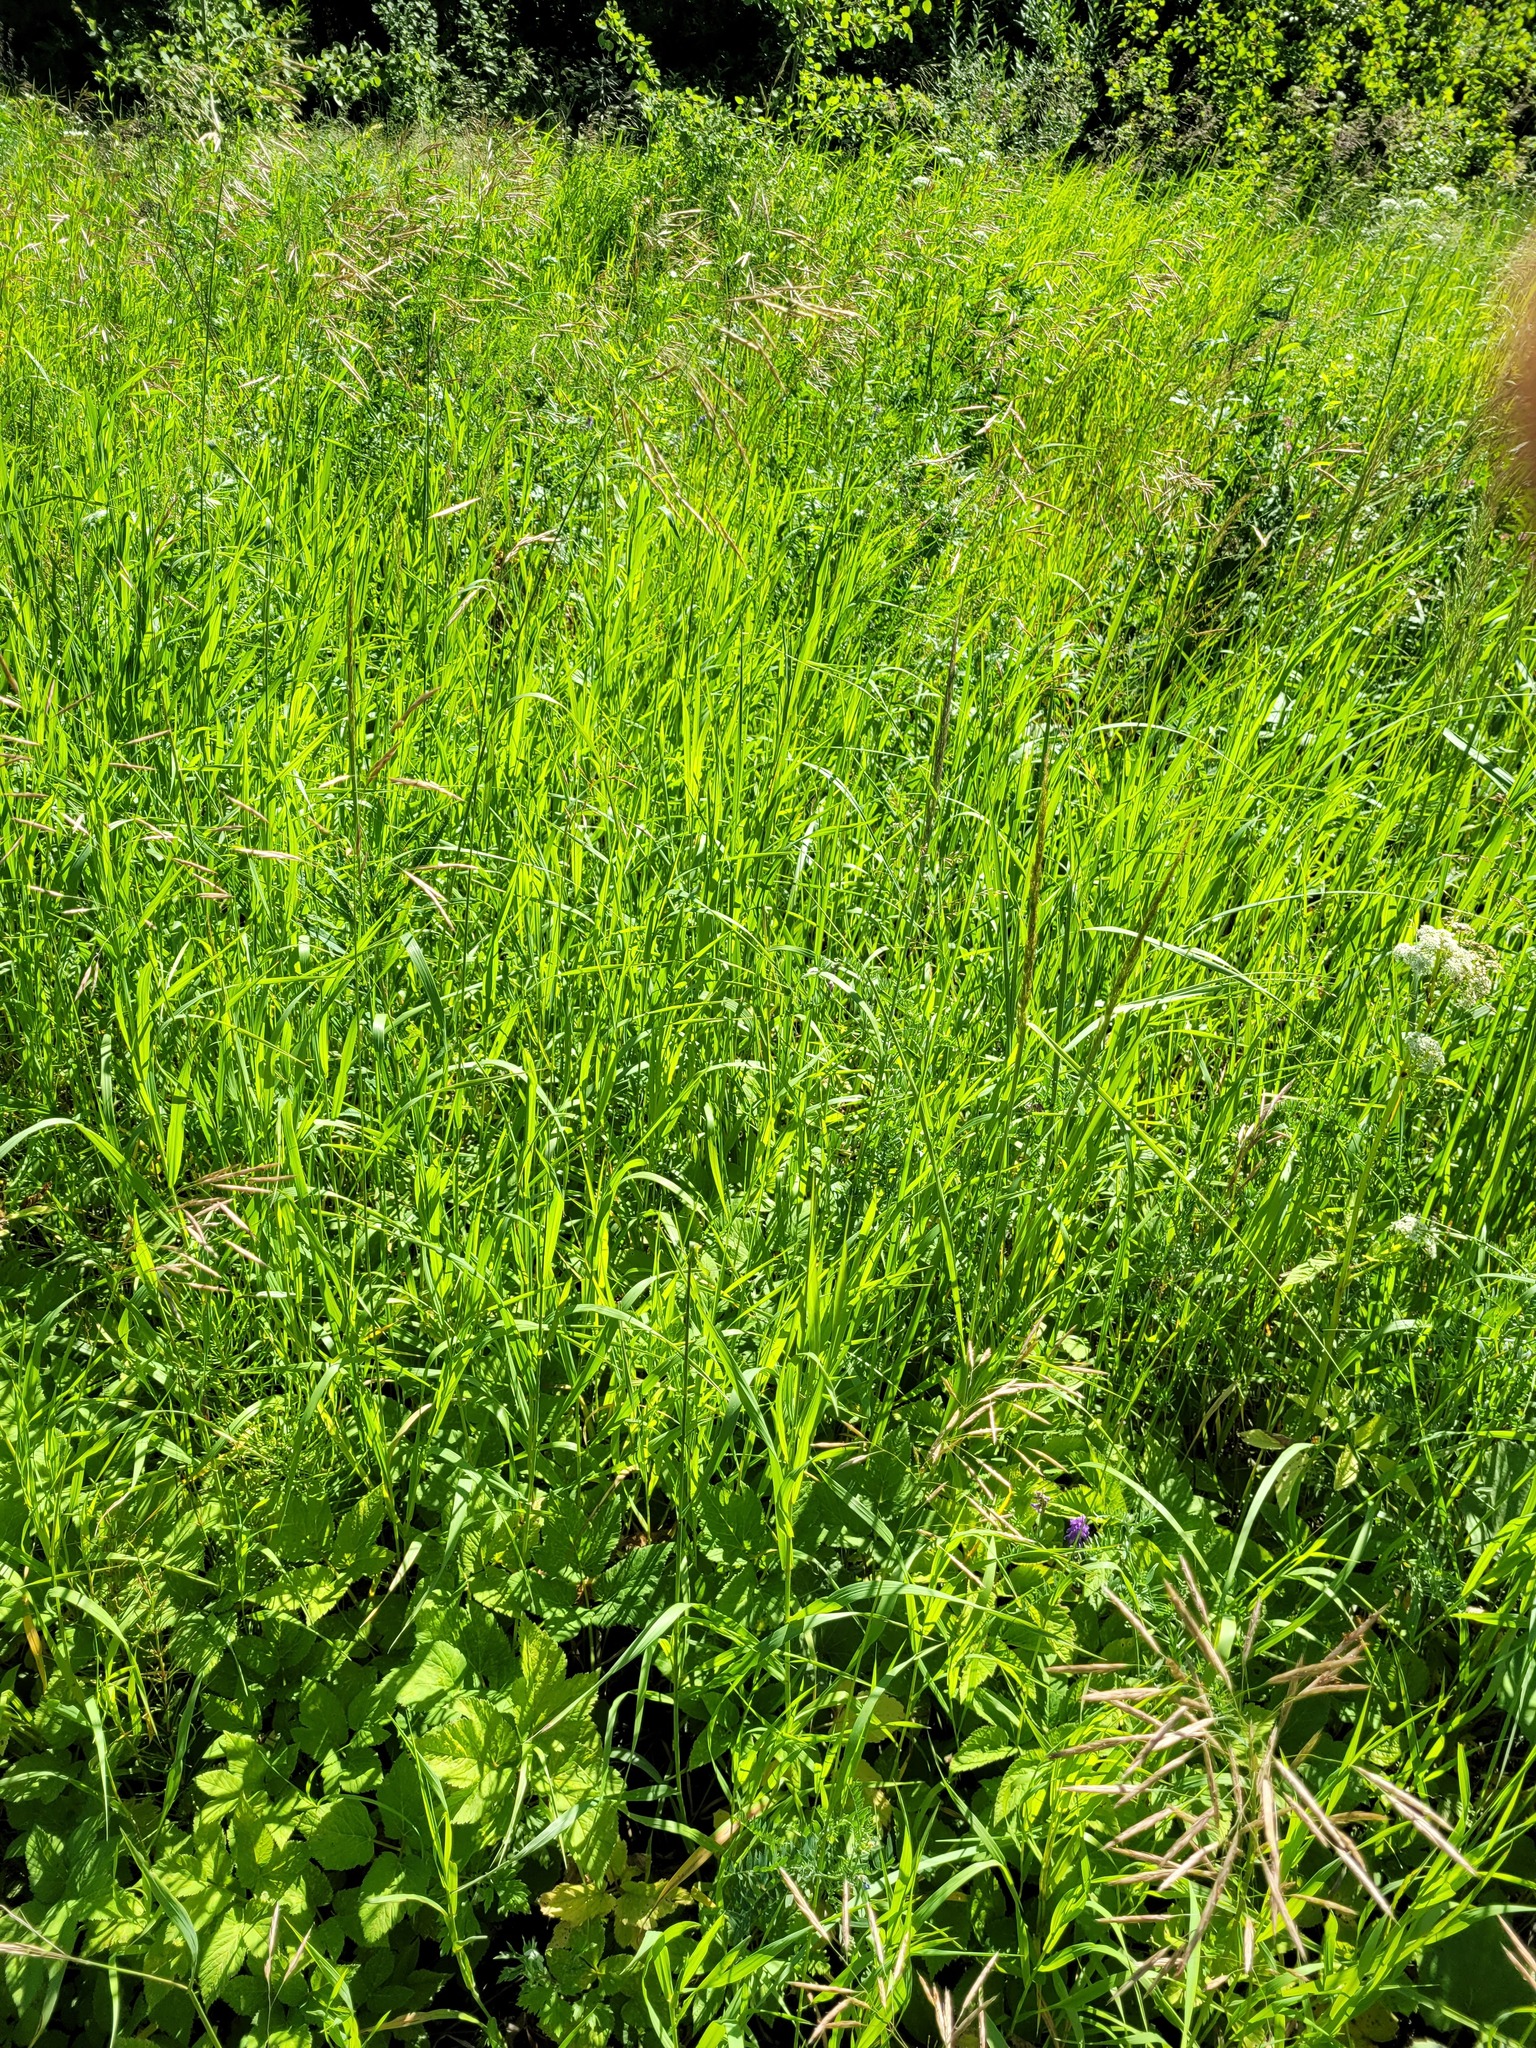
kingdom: Plantae
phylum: Tracheophyta
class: Liliopsida
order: Poales
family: Poaceae
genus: Bromus
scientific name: Bromus inermis
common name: Smooth brome
